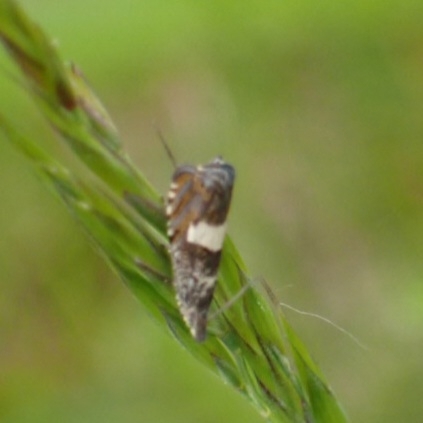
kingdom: Animalia
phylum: Arthropoda
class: Insecta
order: Lepidoptera
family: Tortricidae
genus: Dichrorampha
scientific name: Dichrorampha petiverella
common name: Common drill
